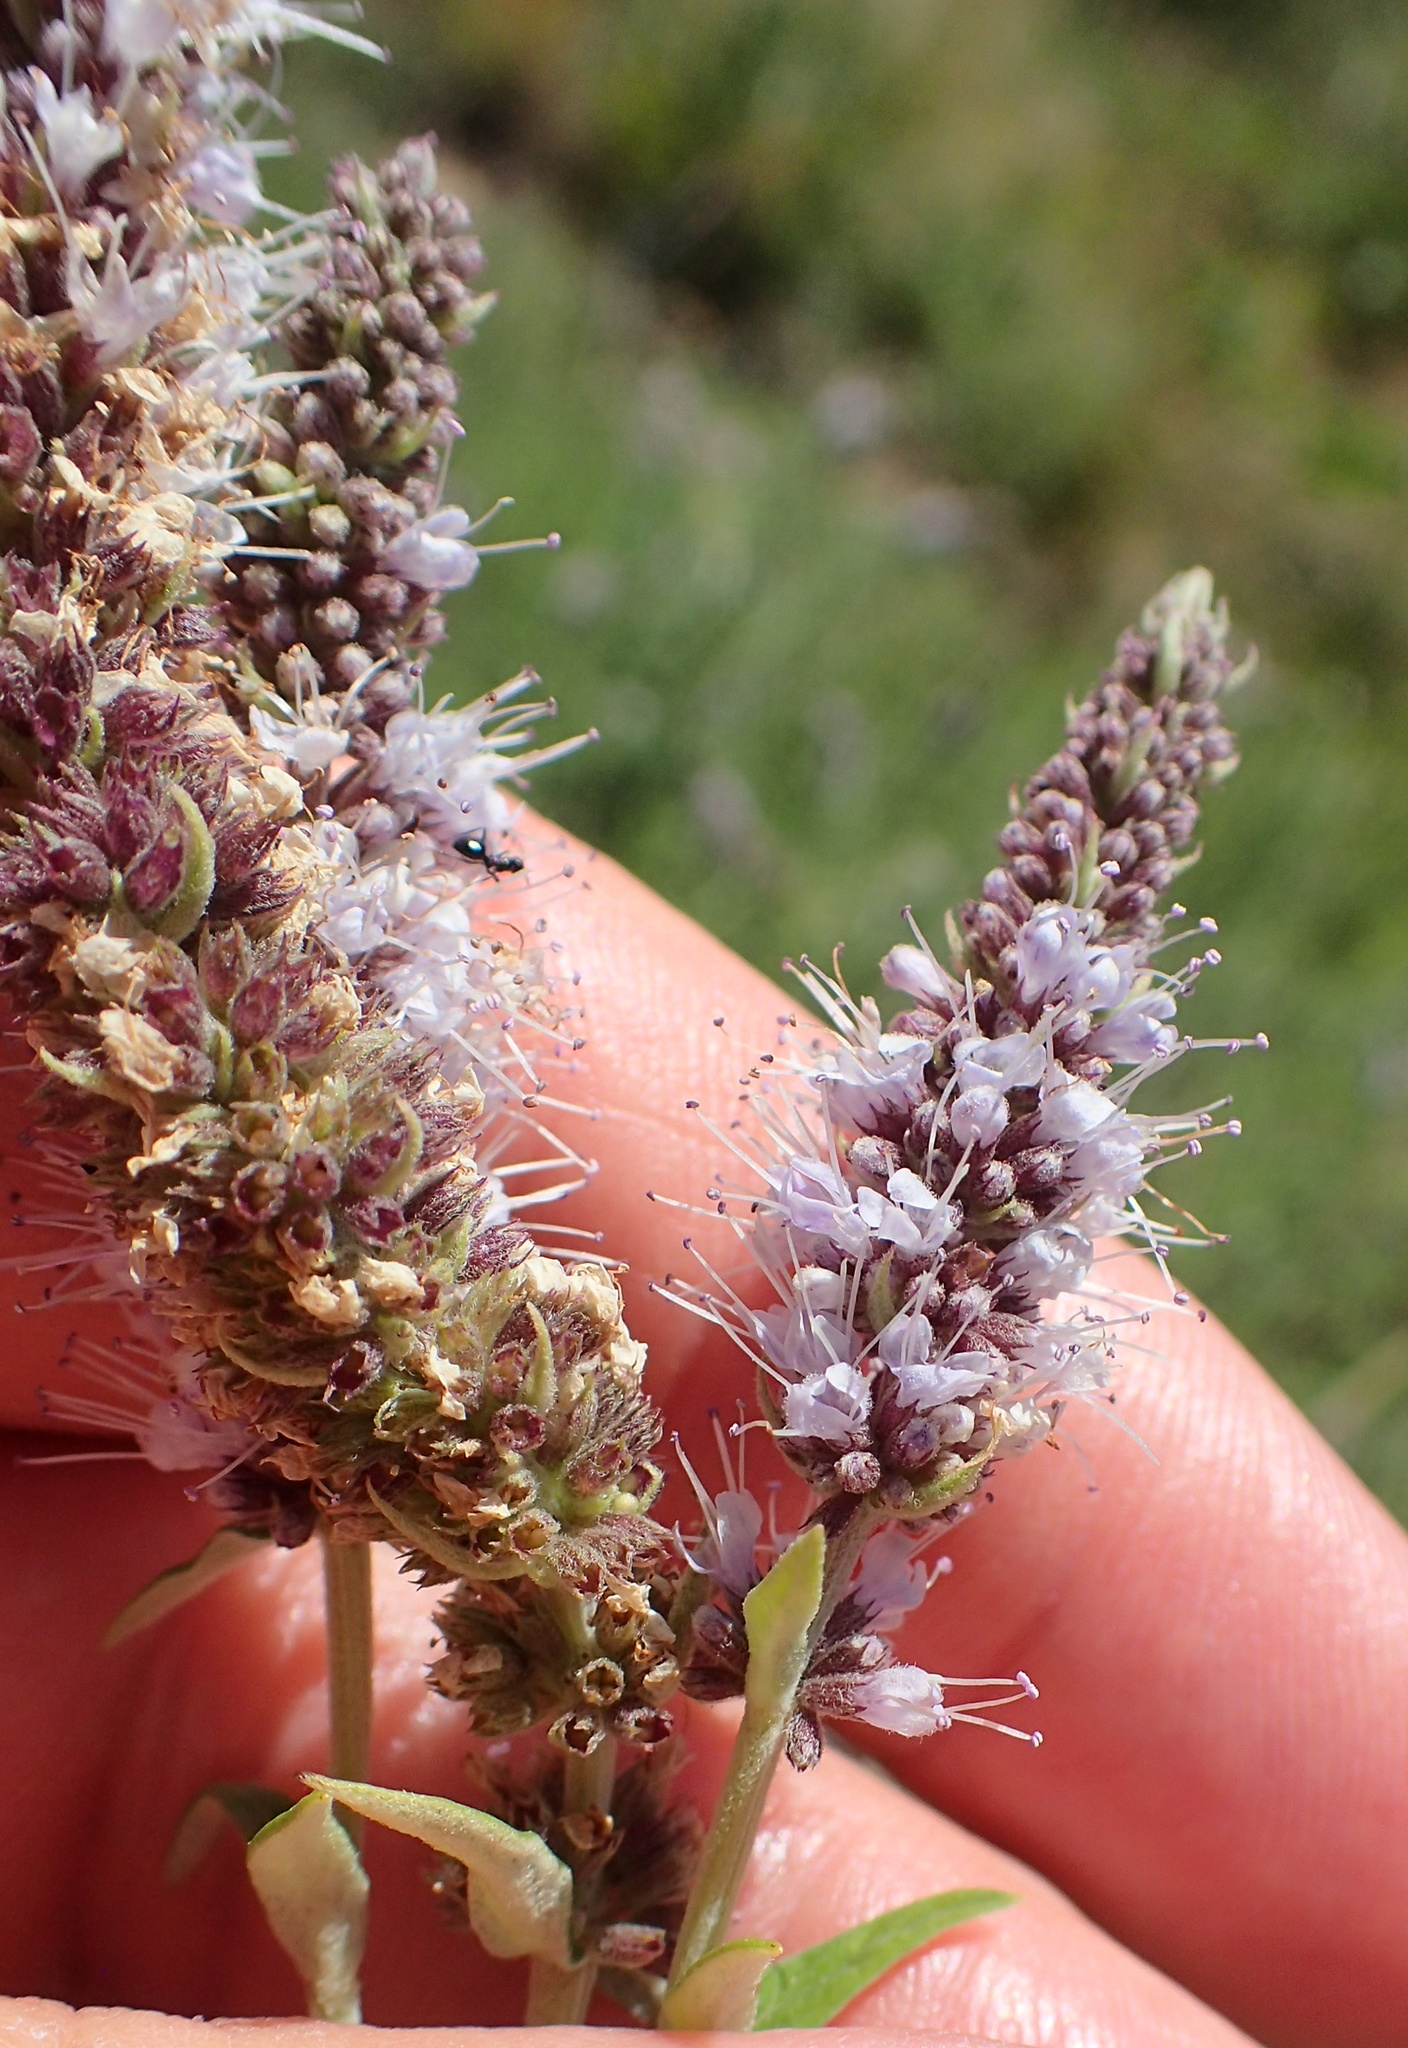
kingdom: Plantae
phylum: Tracheophyta
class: Magnoliopsida
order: Lamiales
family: Lamiaceae
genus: Mentha
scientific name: Mentha longifolia
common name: Horse mint
